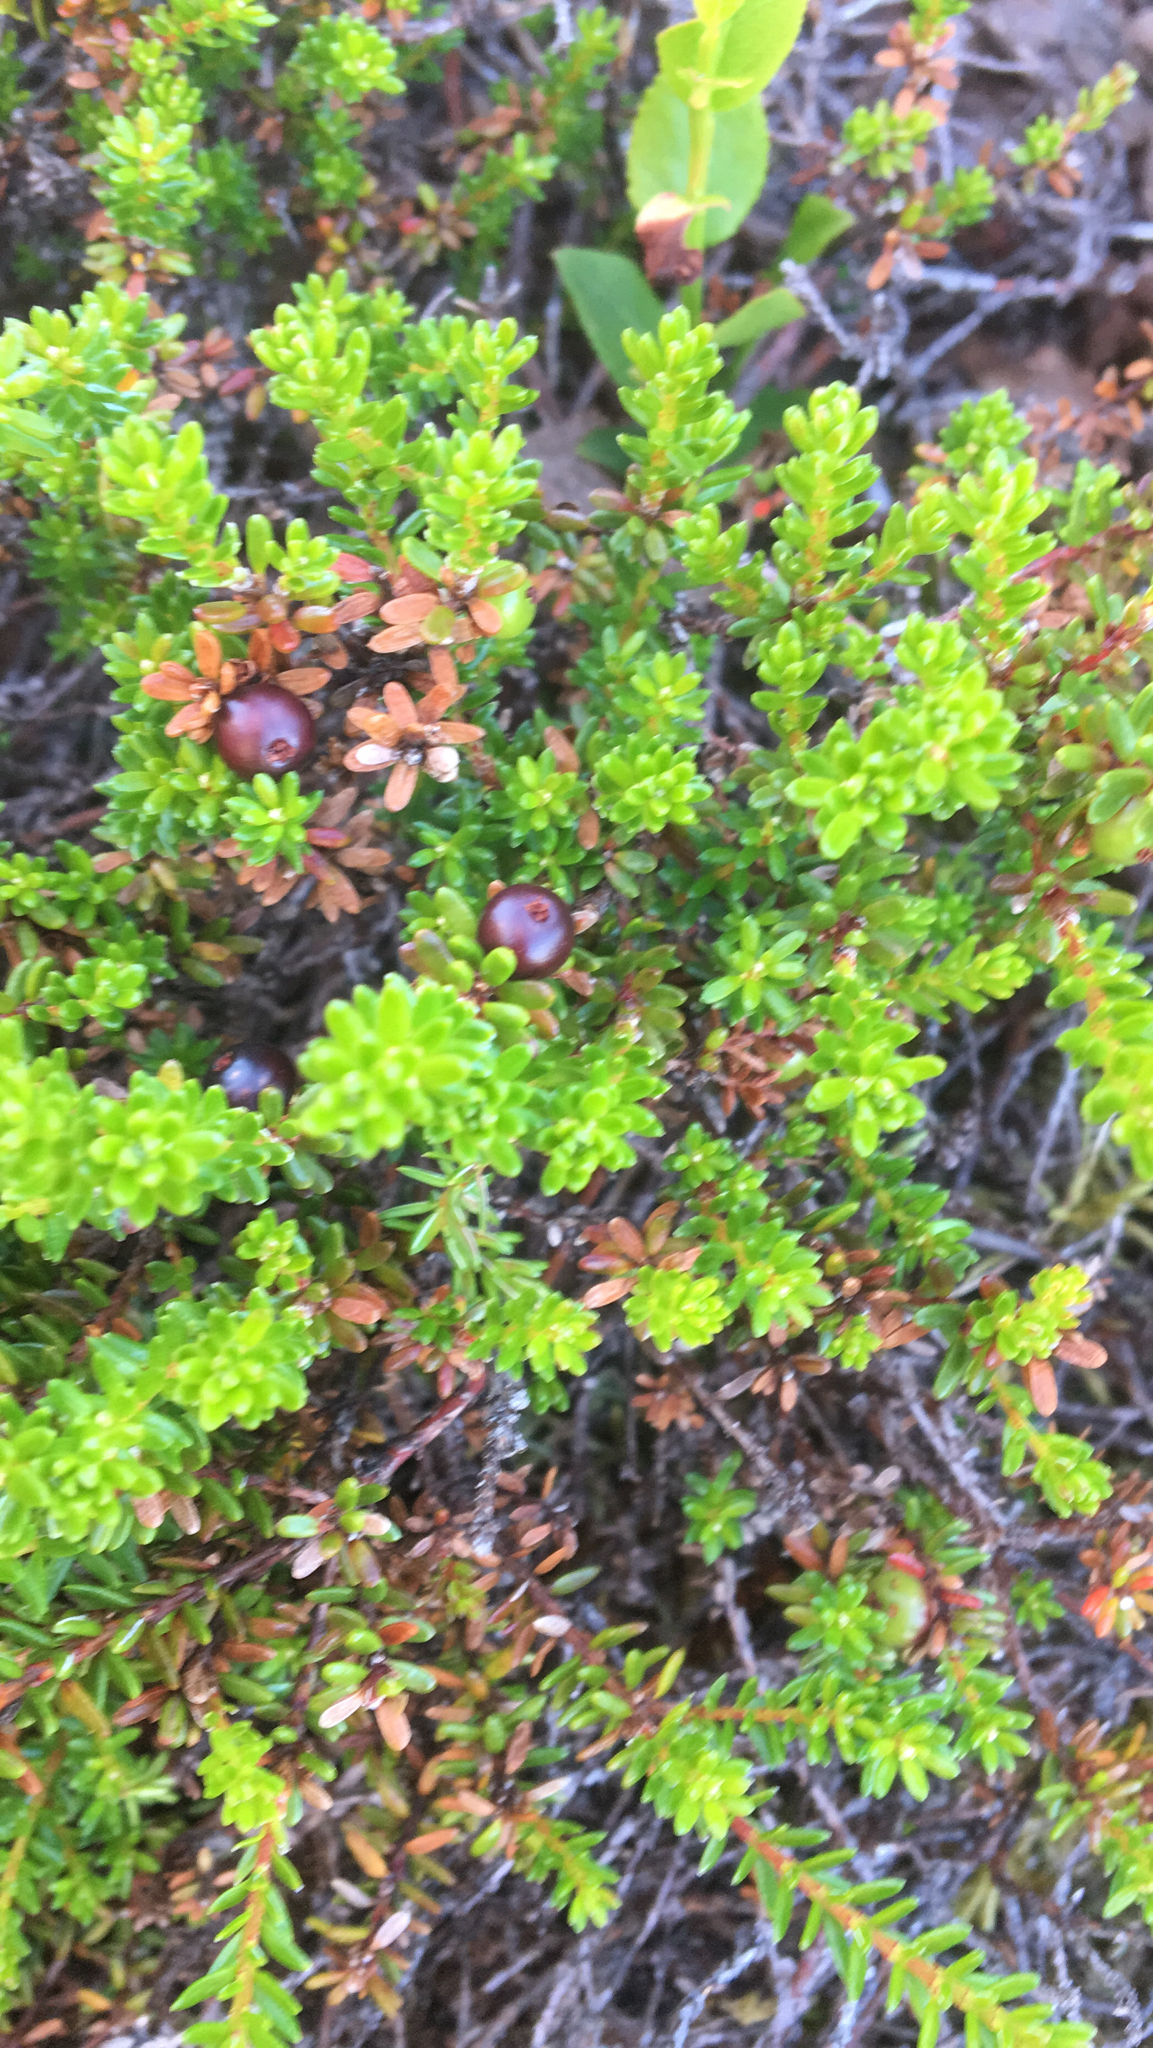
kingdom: Plantae
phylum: Tracheophyta
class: Magnoliopsida
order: Ericales
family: Ericaceae
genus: Empetrum
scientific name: Empetrum nigrum
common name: Black crowberry
